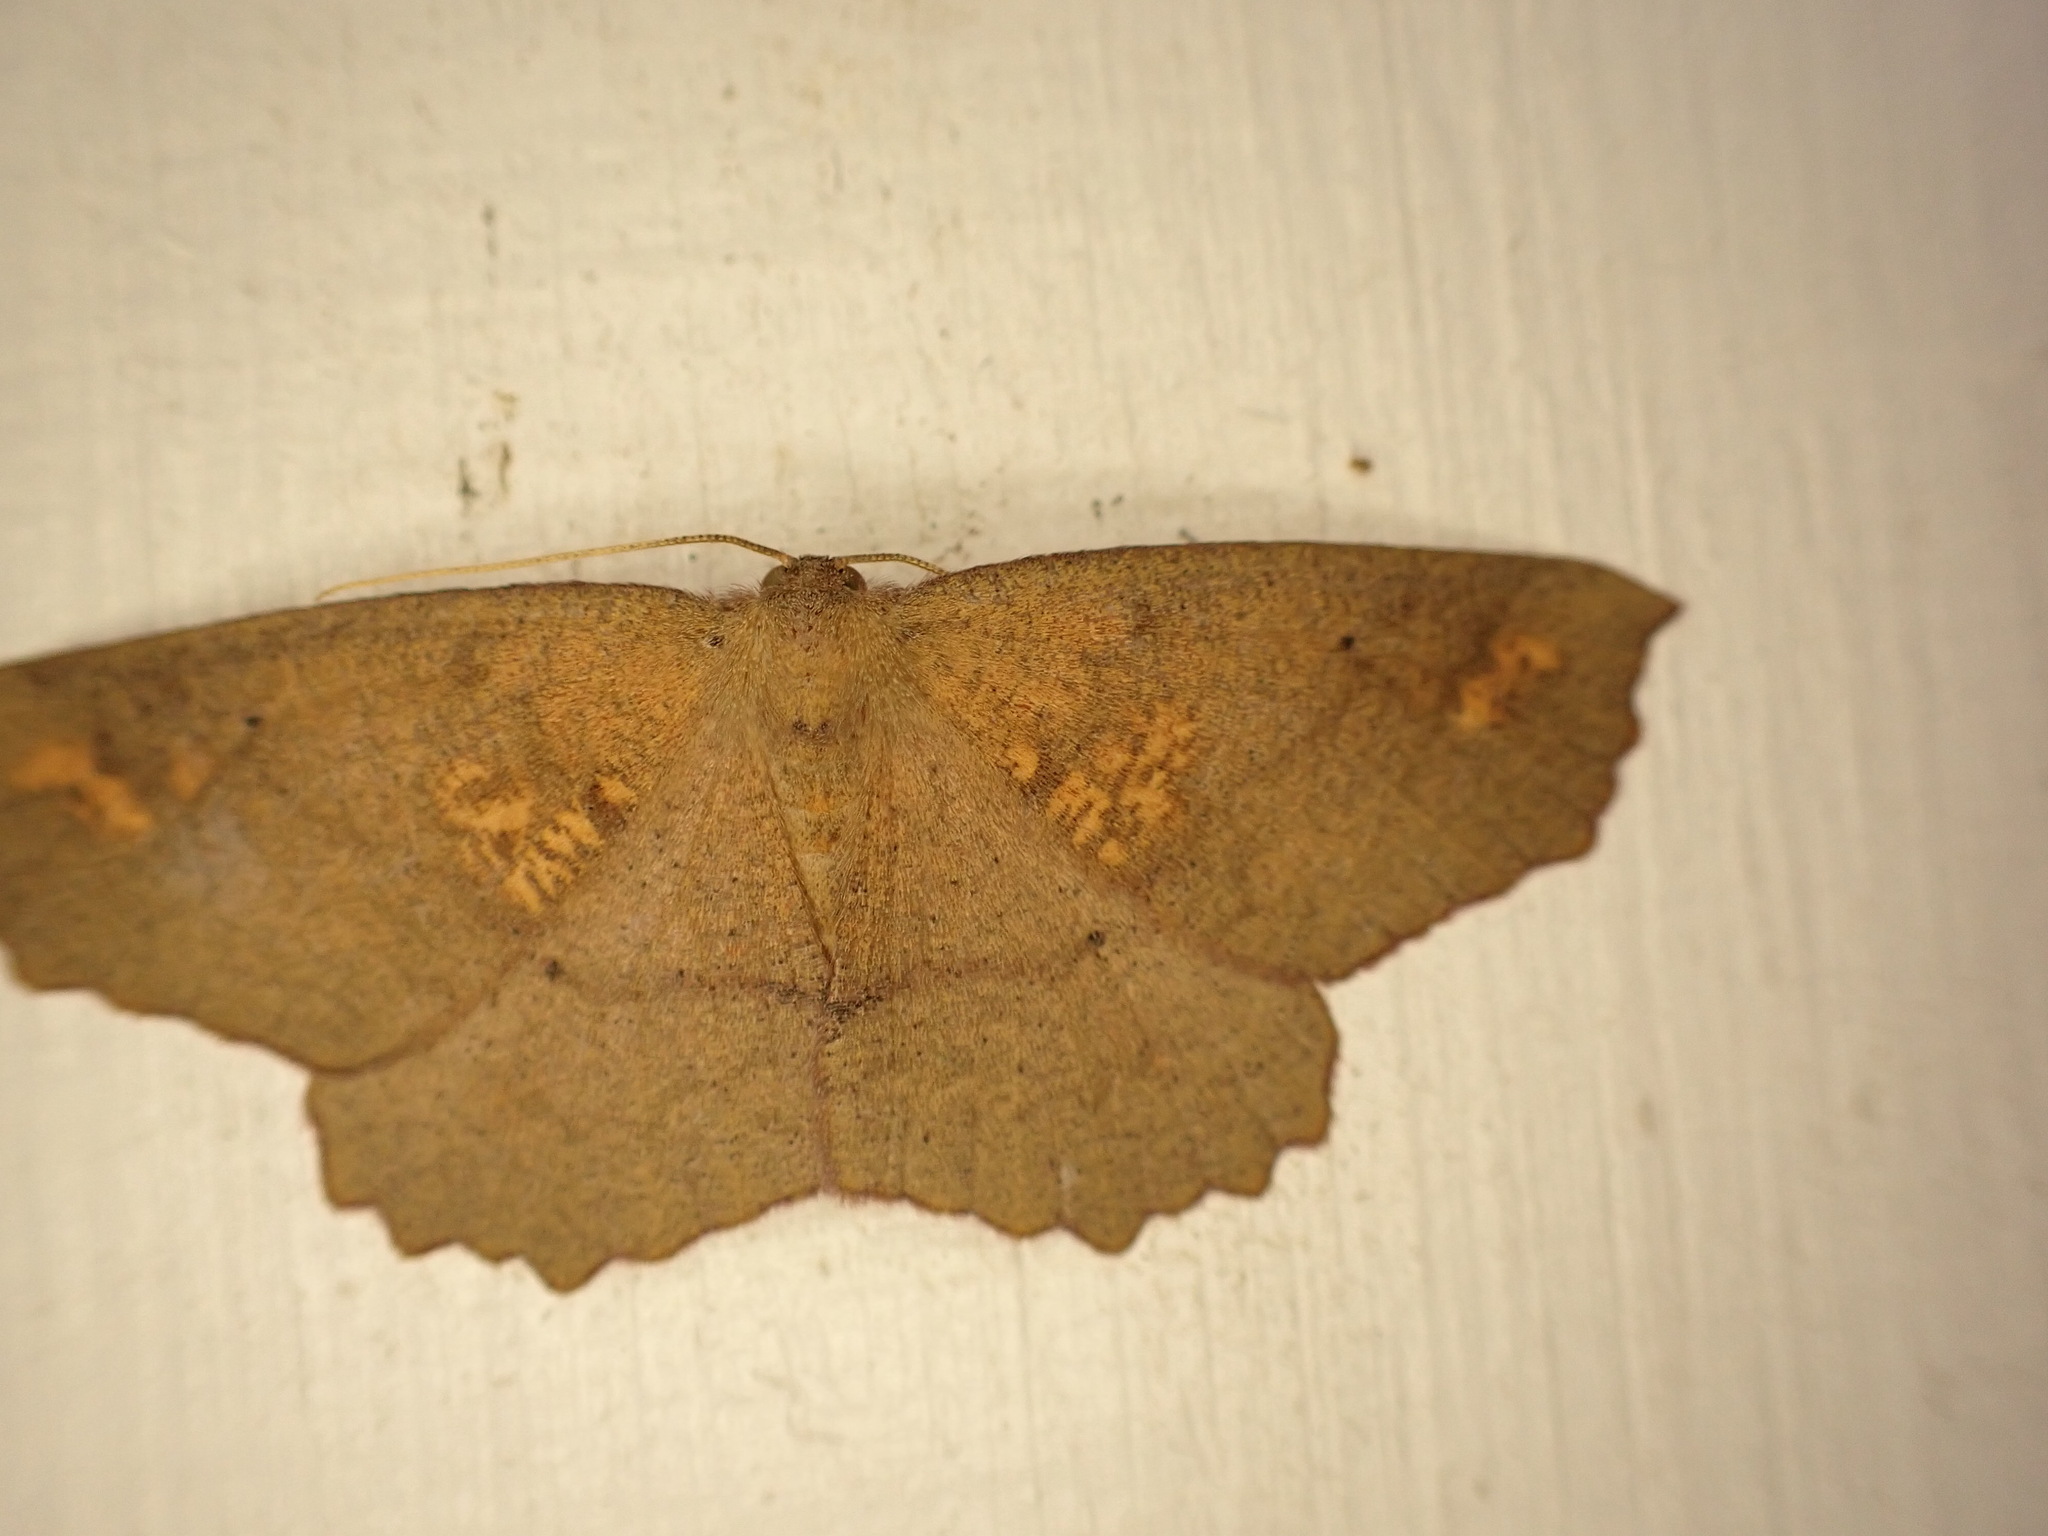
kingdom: Animalia
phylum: Arthropoda
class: Insecta
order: Lepidoptera
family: Geometridae
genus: Xyridacma
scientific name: Xyridacma ustaria
